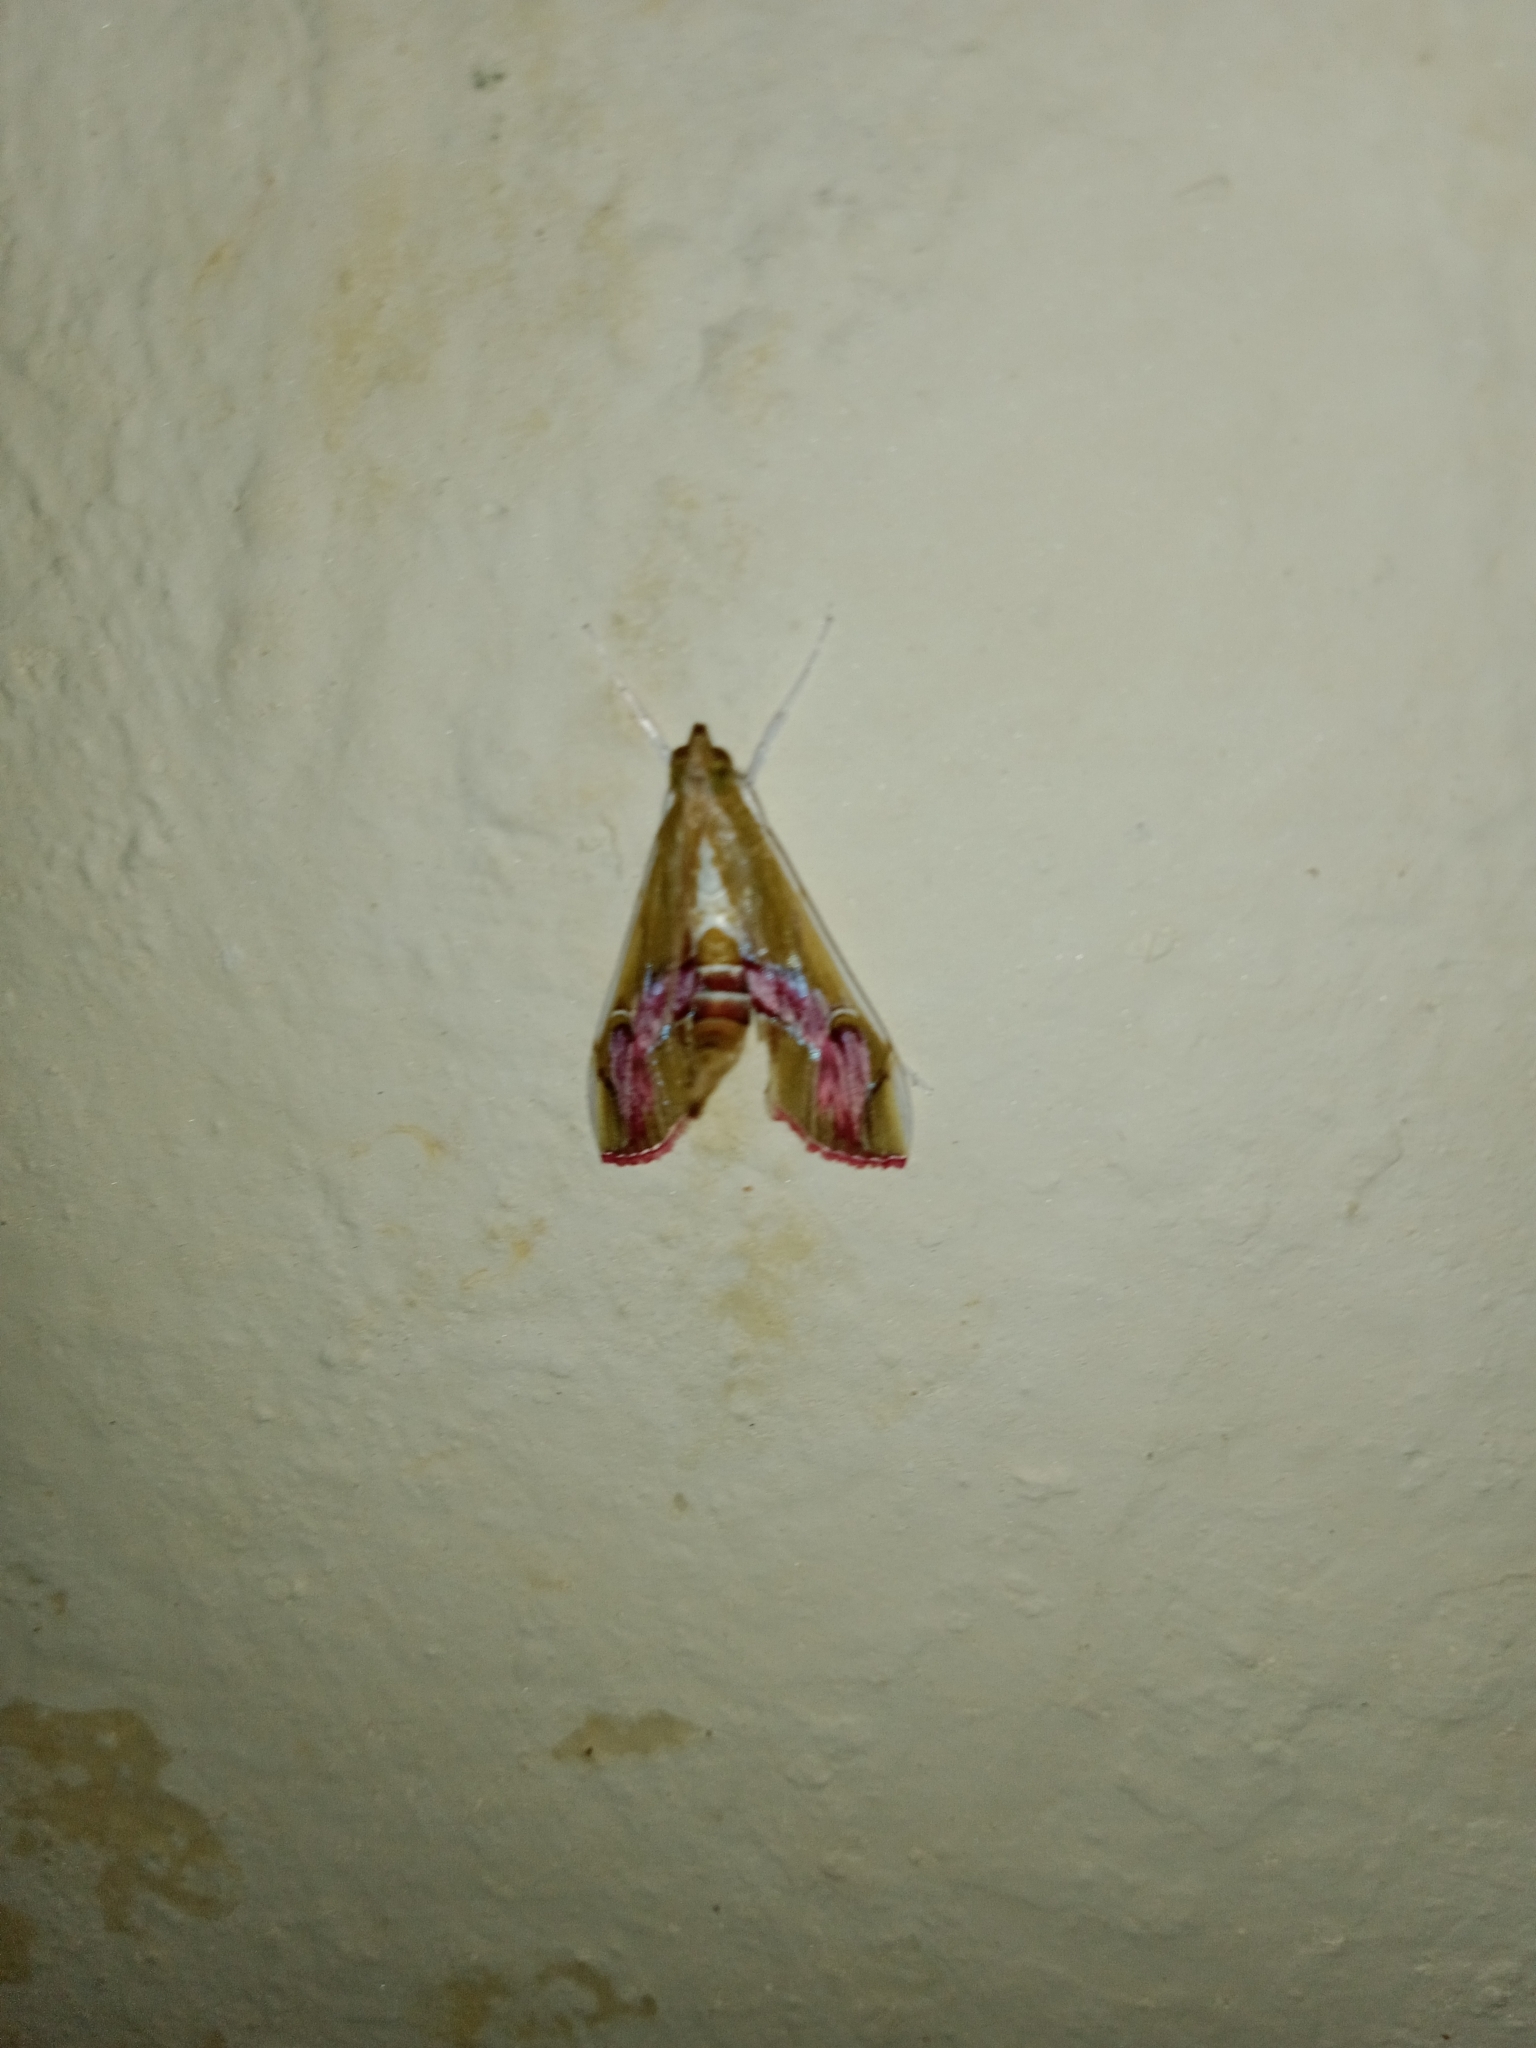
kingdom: Animalia
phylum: Arthropoda
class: Insecta
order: Lepidoptera
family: Crambidae
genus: Agathodes
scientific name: Agathodes ostentalis
